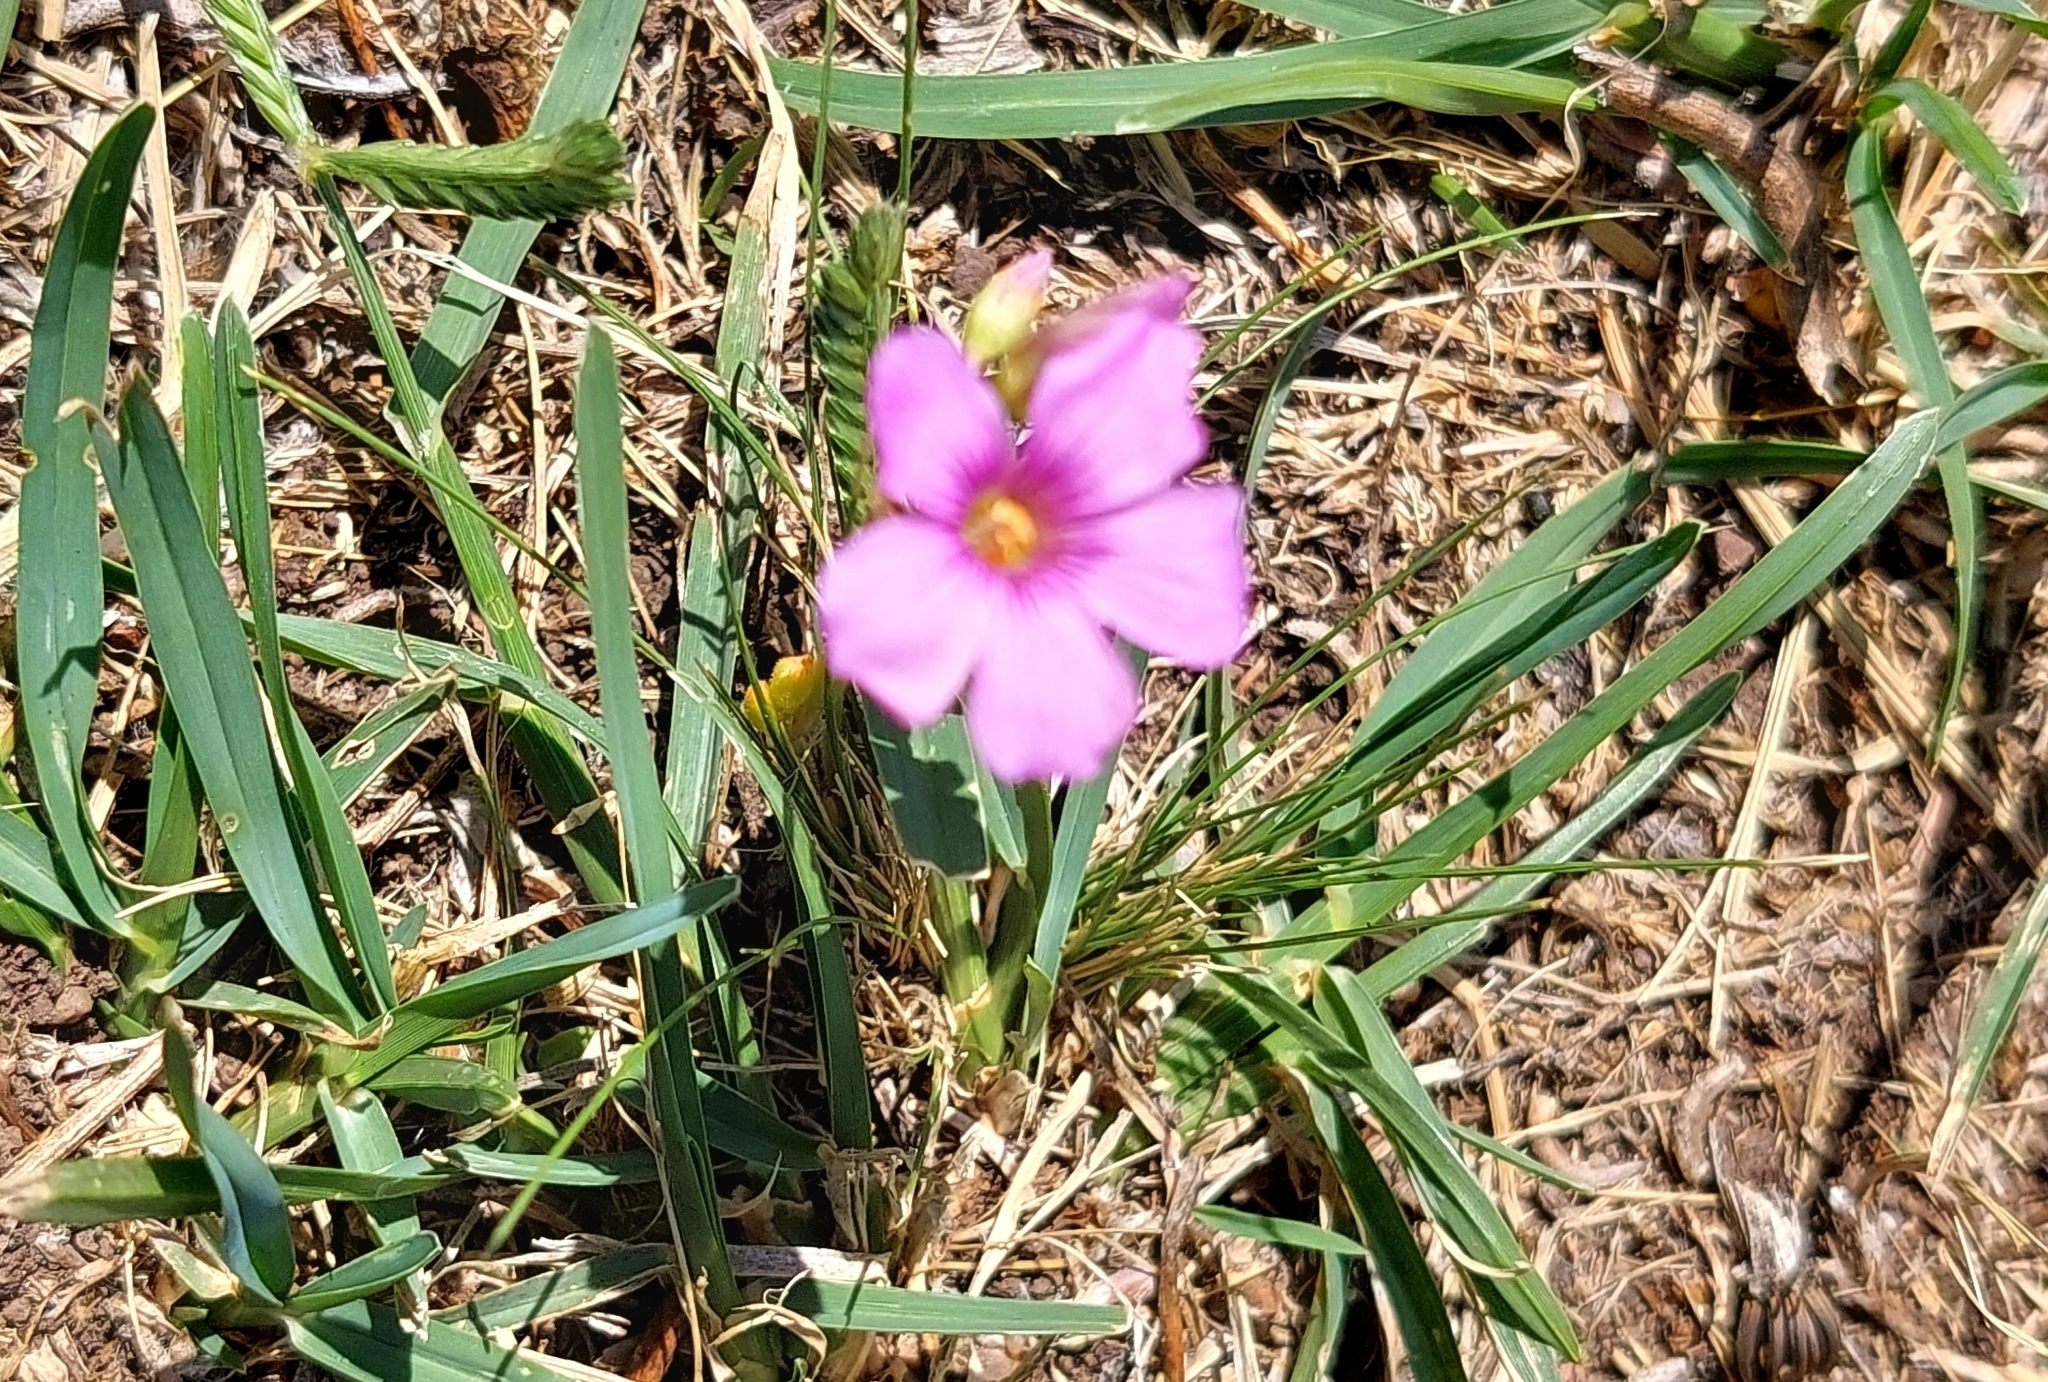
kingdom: Plantae
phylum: Tracheophyta
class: Magnoliopsida
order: Oxalidales
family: Oxalidaceae
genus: Oxalis
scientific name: Oxalis articulata
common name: Pink-sorrel
